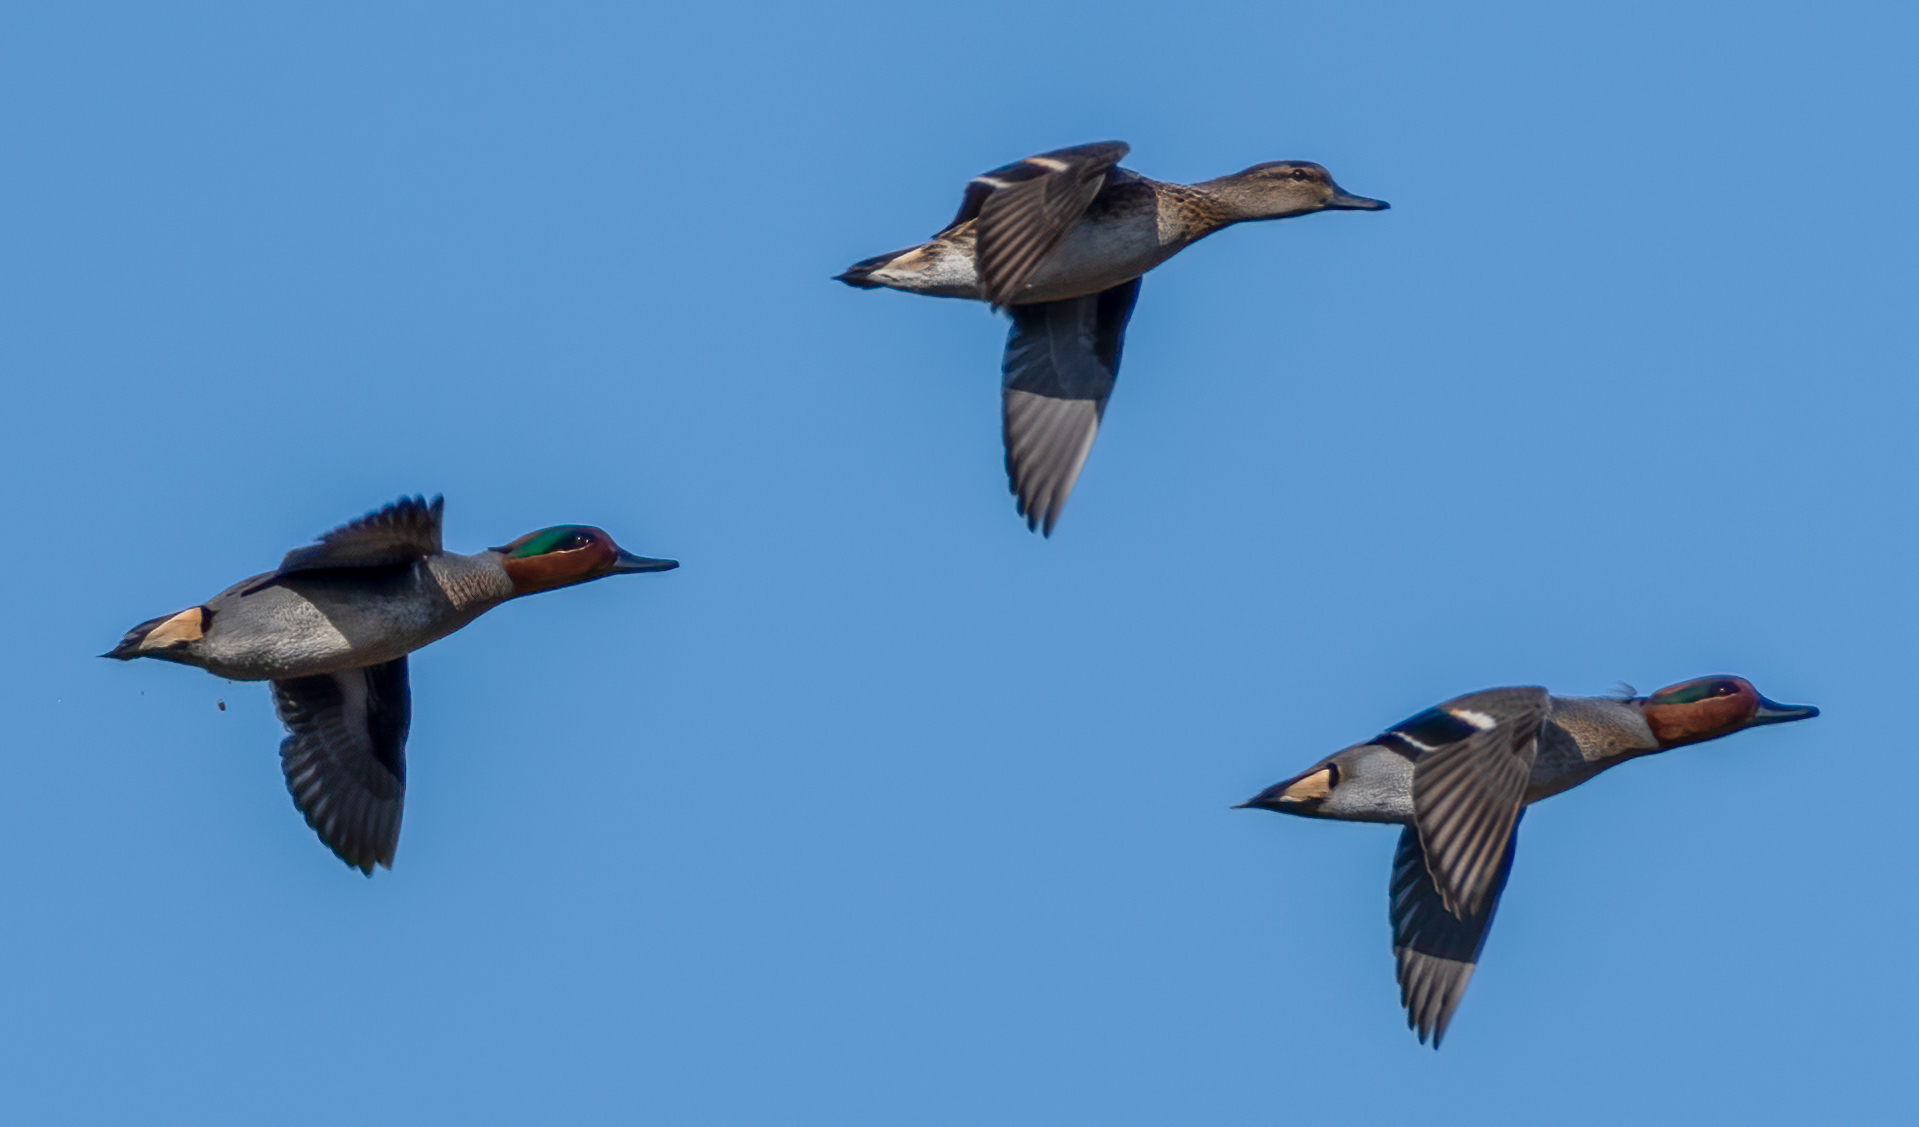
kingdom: Animalia
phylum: Chordata
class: Aves
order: Anseriformes
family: Anatidae
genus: Anas
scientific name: Anas crecca
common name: Eurasian teal
